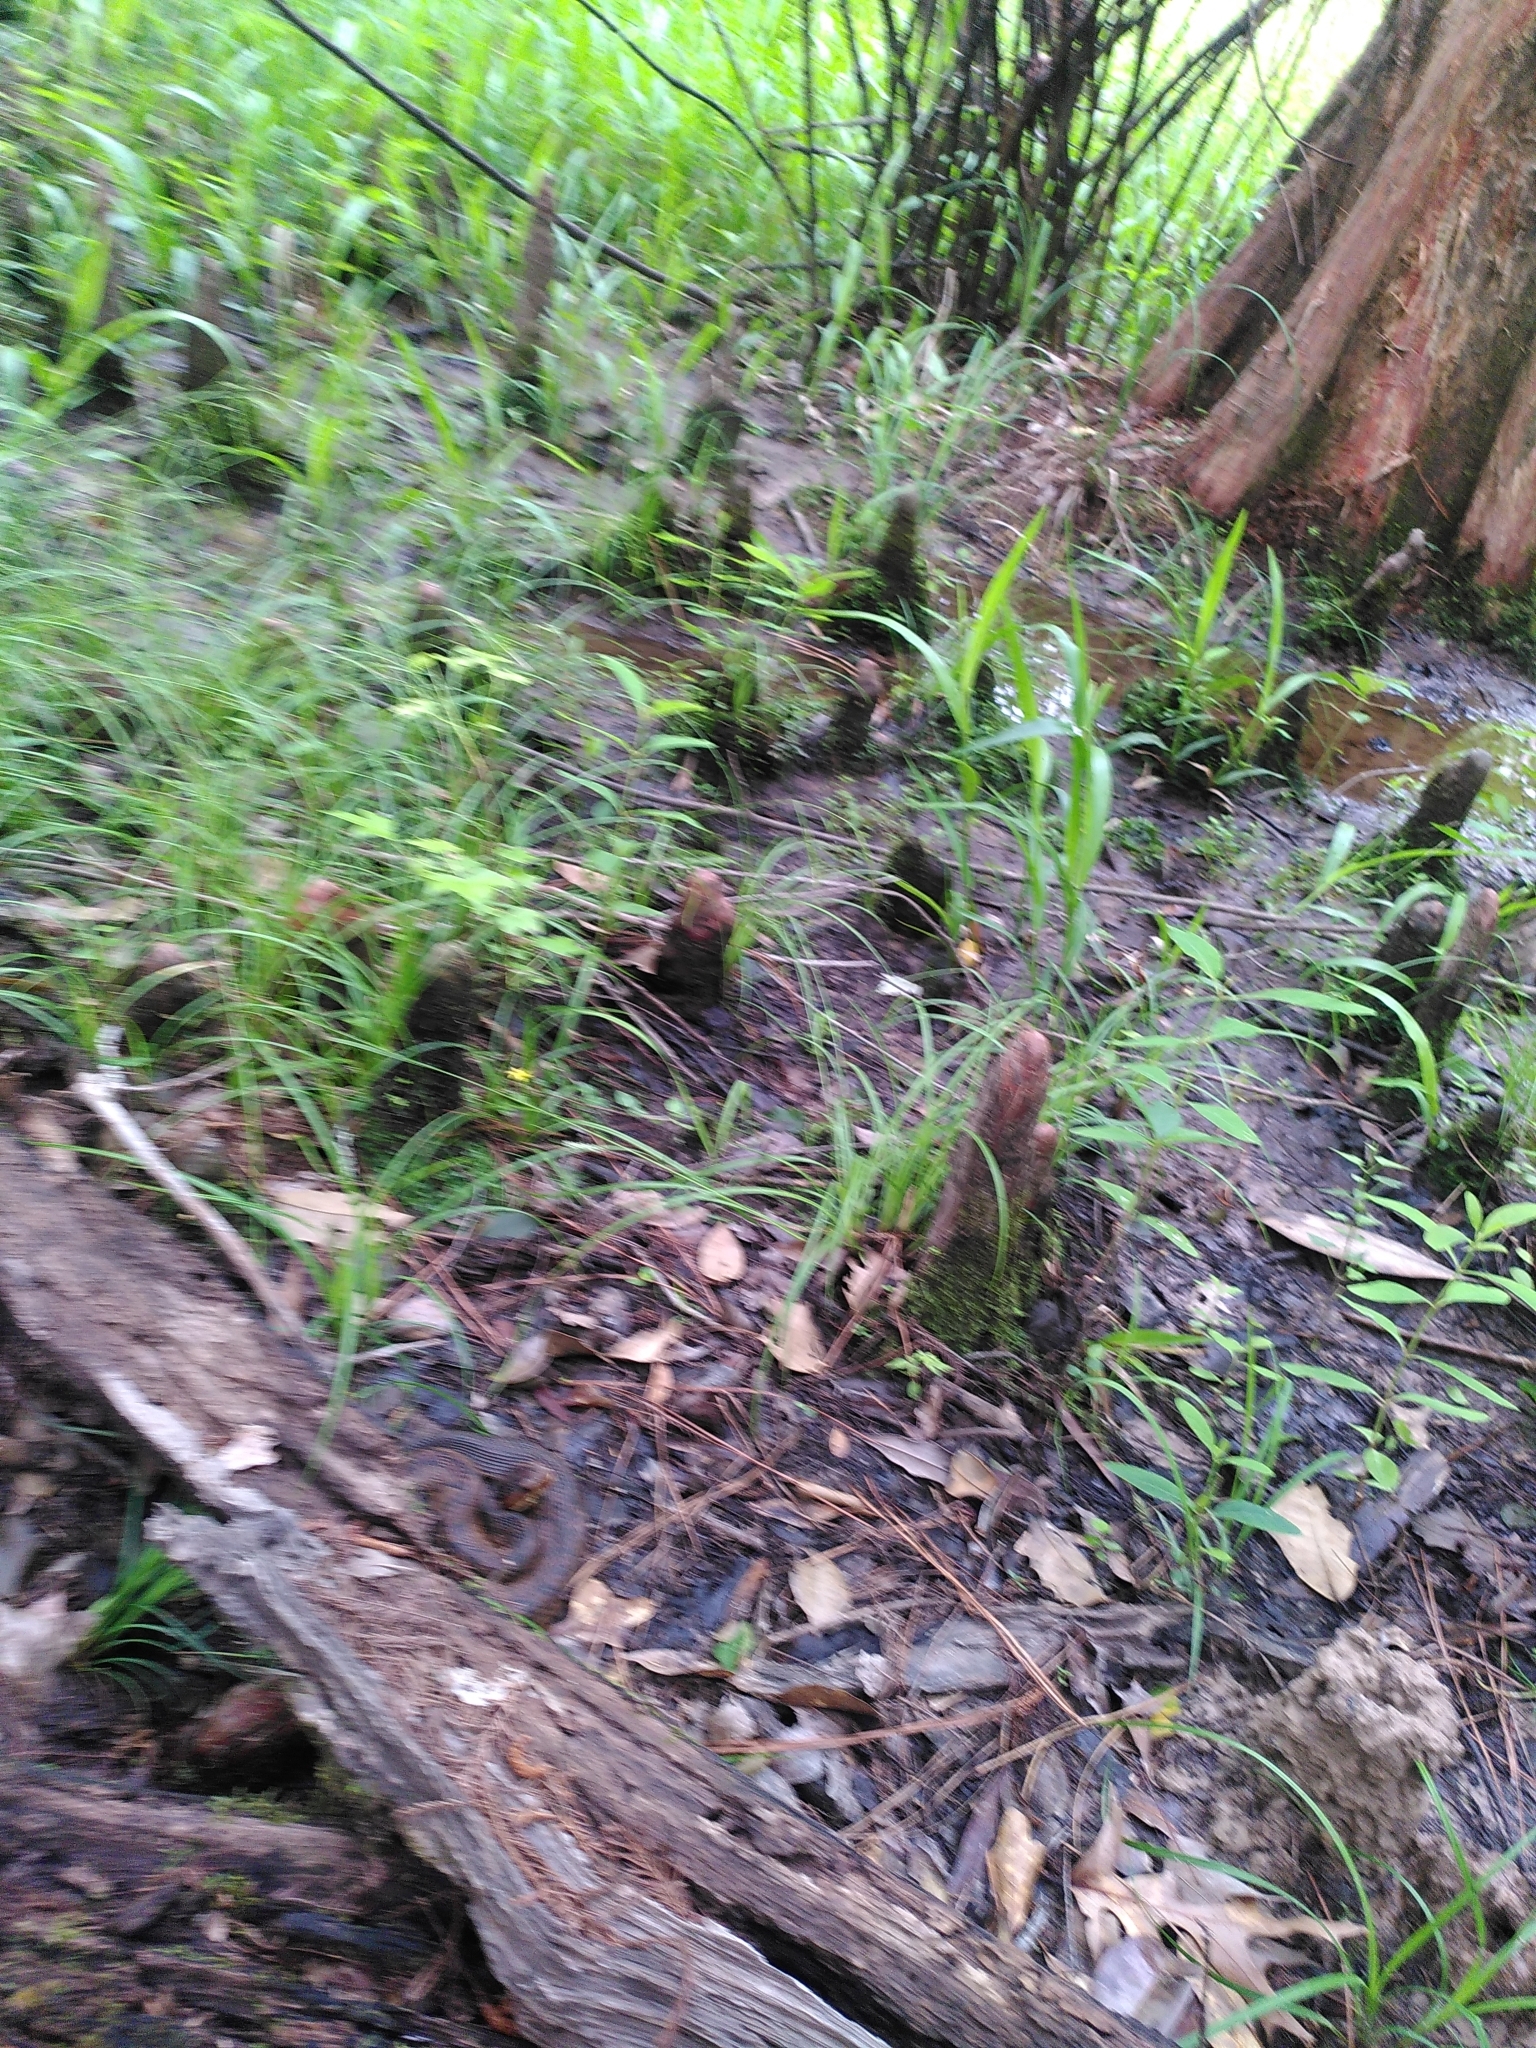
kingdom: Animalia
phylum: Chordata
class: Squamata
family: Viperidae
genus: Agkistrodon
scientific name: Agkistrodon piscivorus
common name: Cottonmouth
